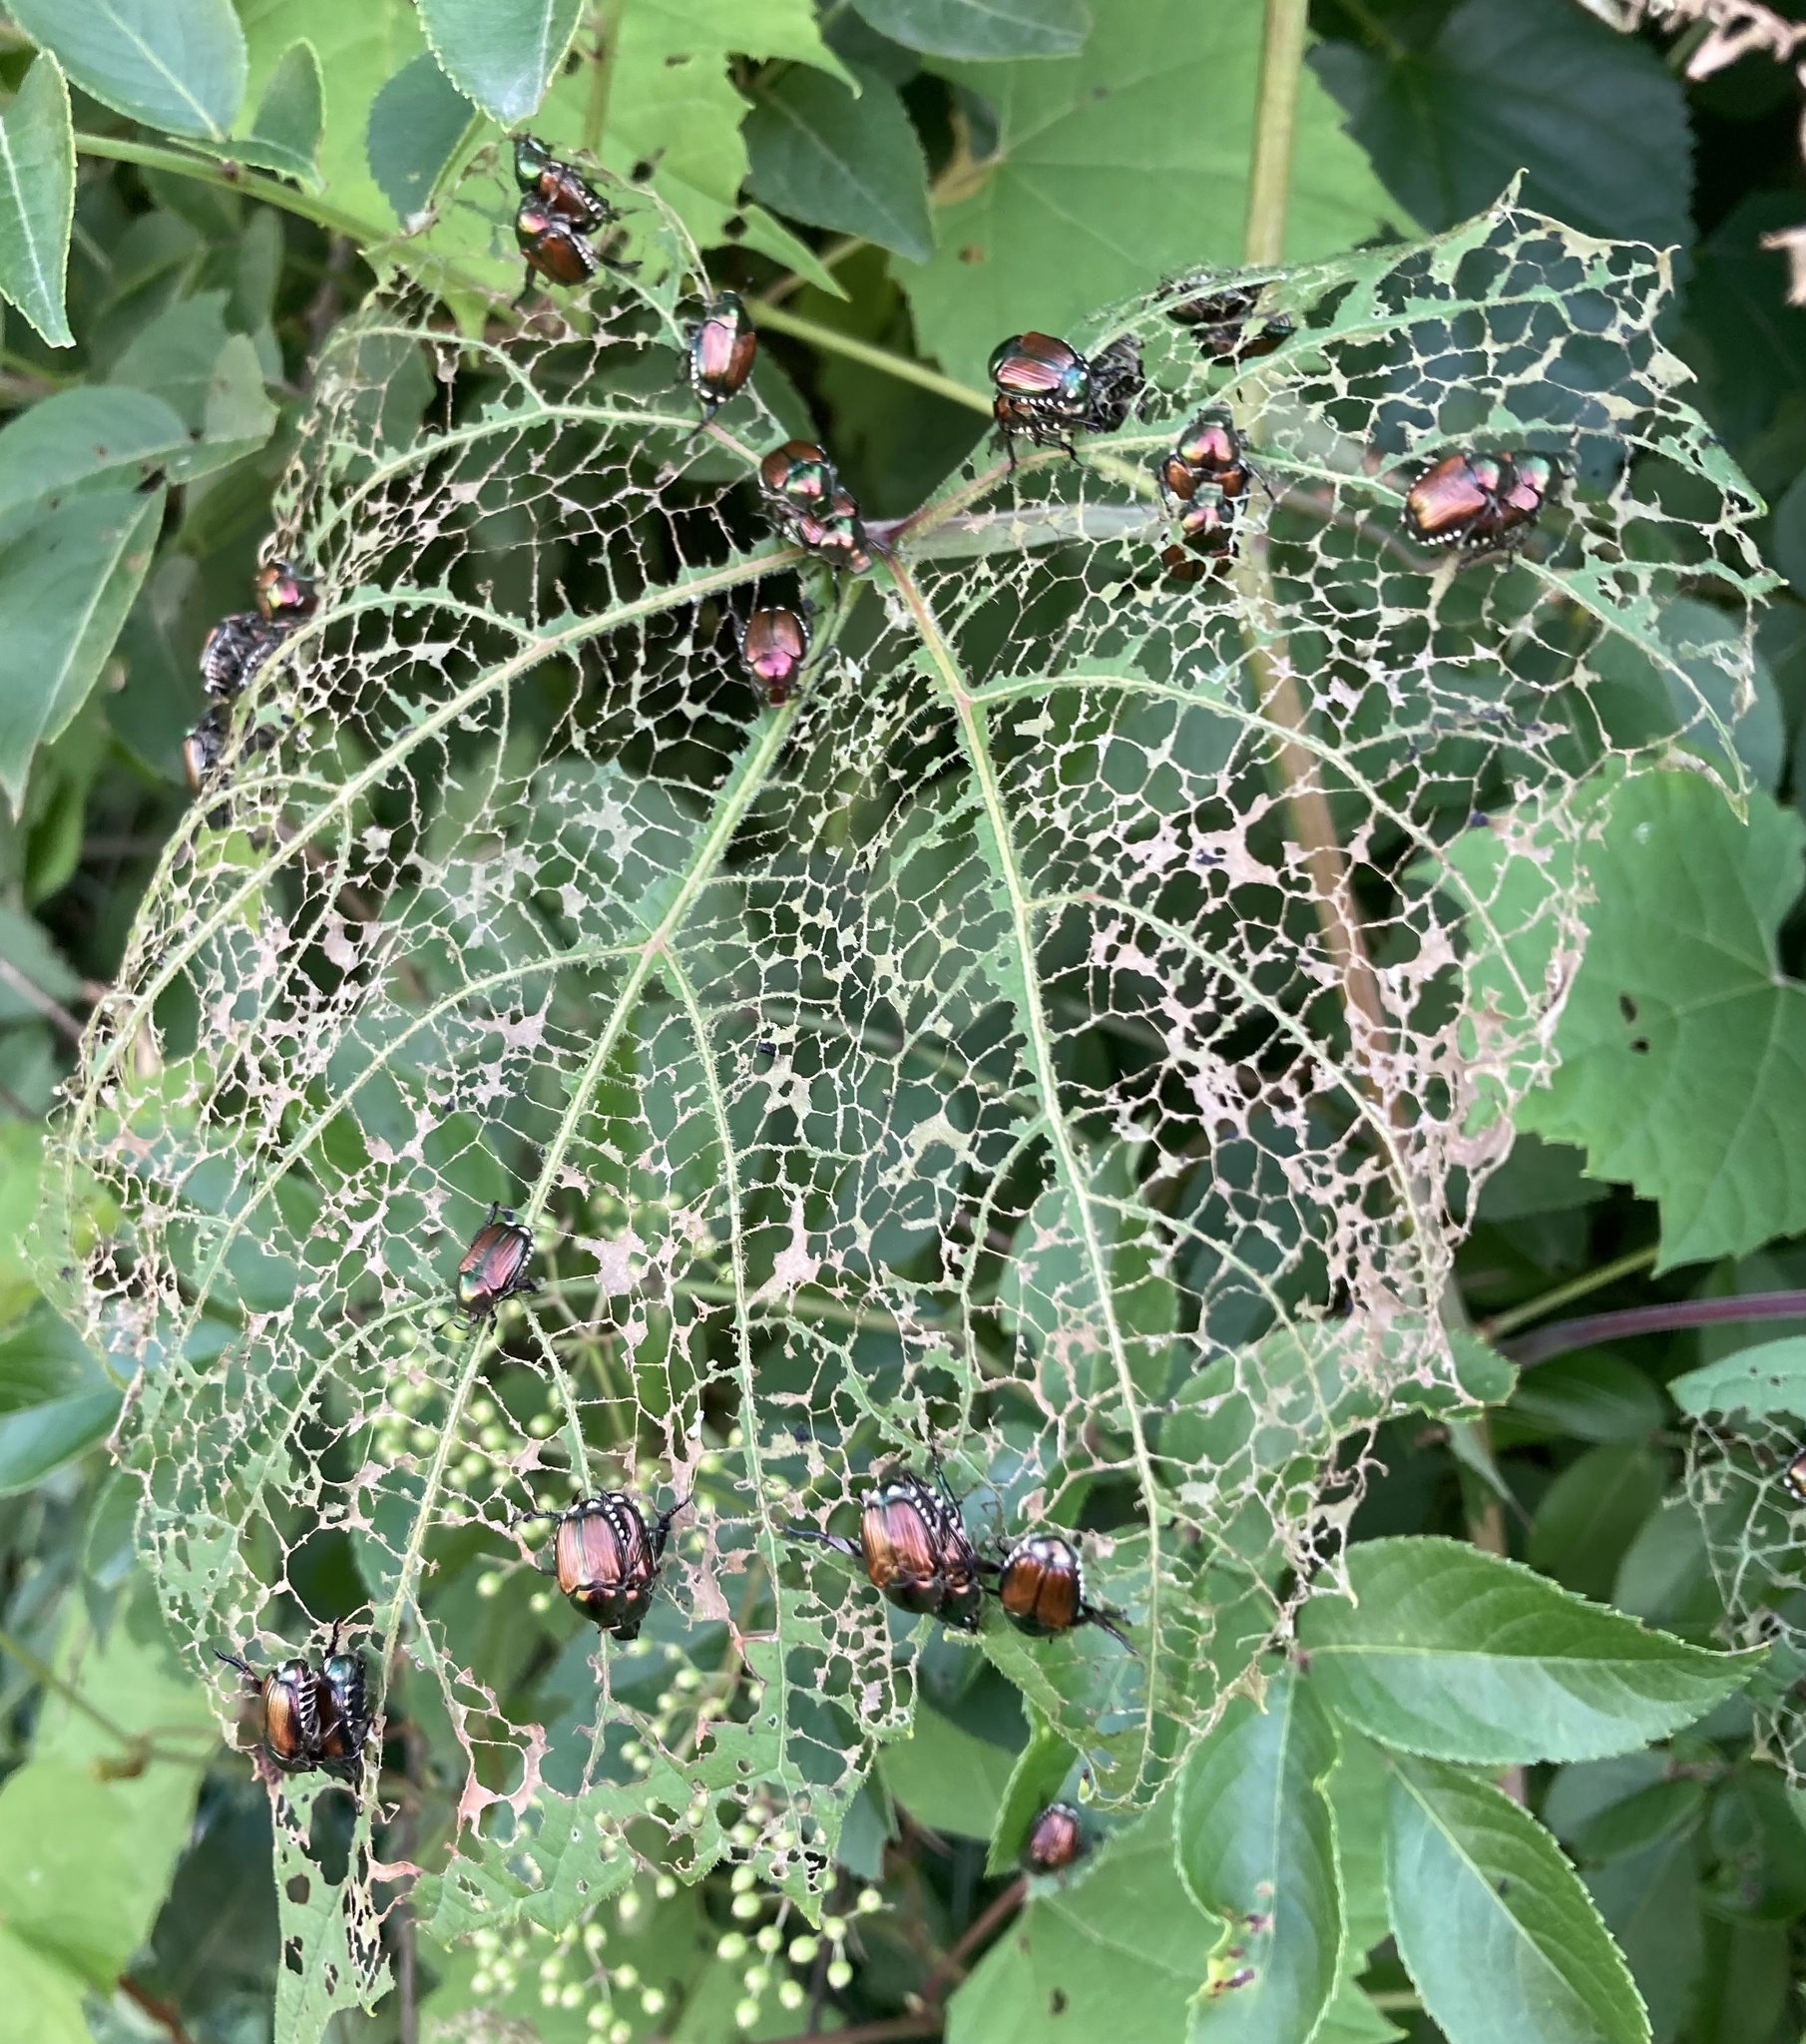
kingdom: Animalia
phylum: Arthropoda
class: Insecta
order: Coleoptera
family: Scarabaeidae
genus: Popillia
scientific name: Popillia japonica
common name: Japanese beetle
